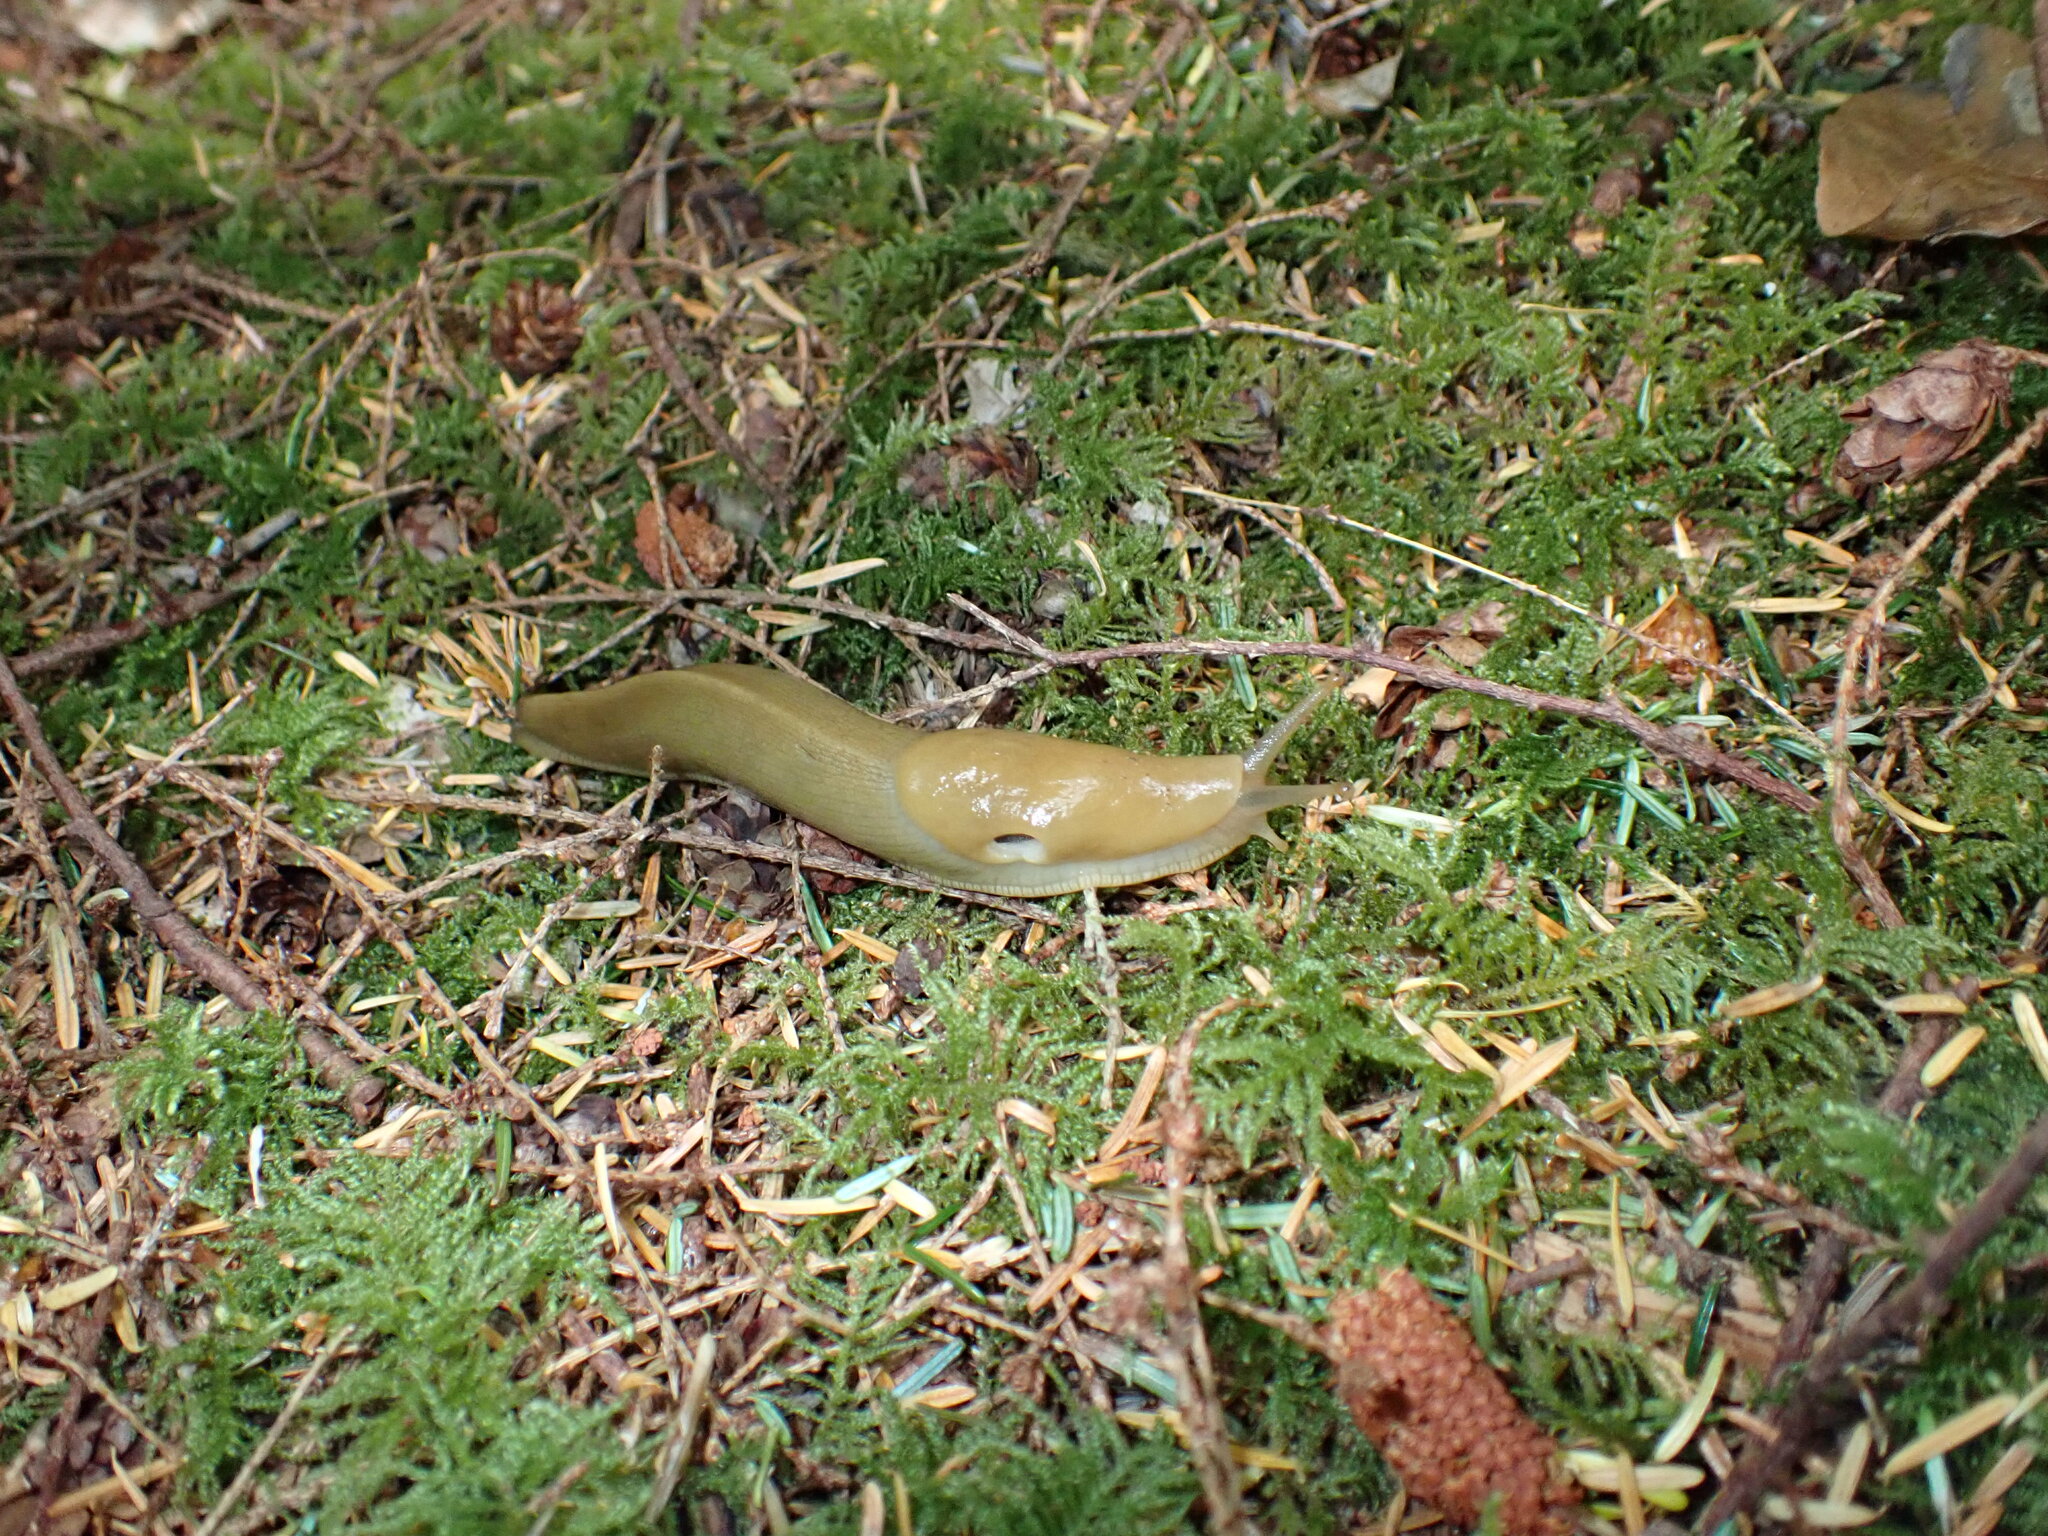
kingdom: Animalia
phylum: Mollusca
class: Gastropoda
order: Stylommatophora
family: Ariolimacidae
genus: Ariolimax
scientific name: Ariolimax columbianus
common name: Pacific banana slug
